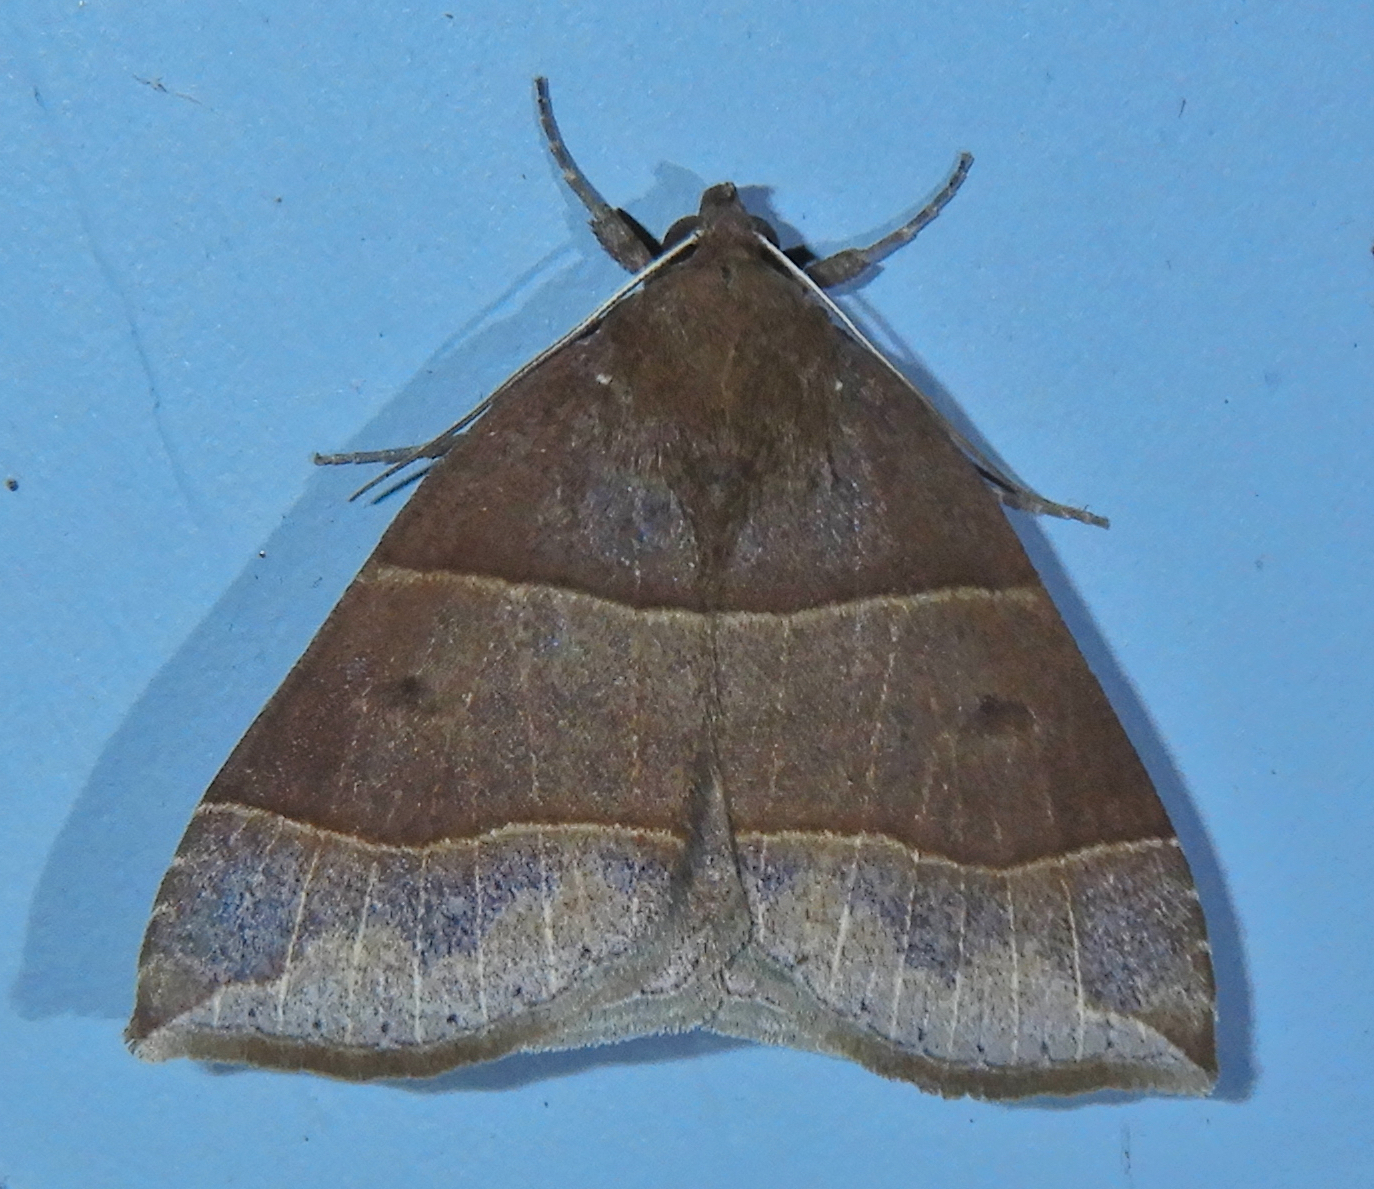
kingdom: Animalia
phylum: Arthropoda
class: Insecta
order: Lepidoptera
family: Erebidae
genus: Parallelia
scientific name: Parallelia bistriaris
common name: Maple looper moth
